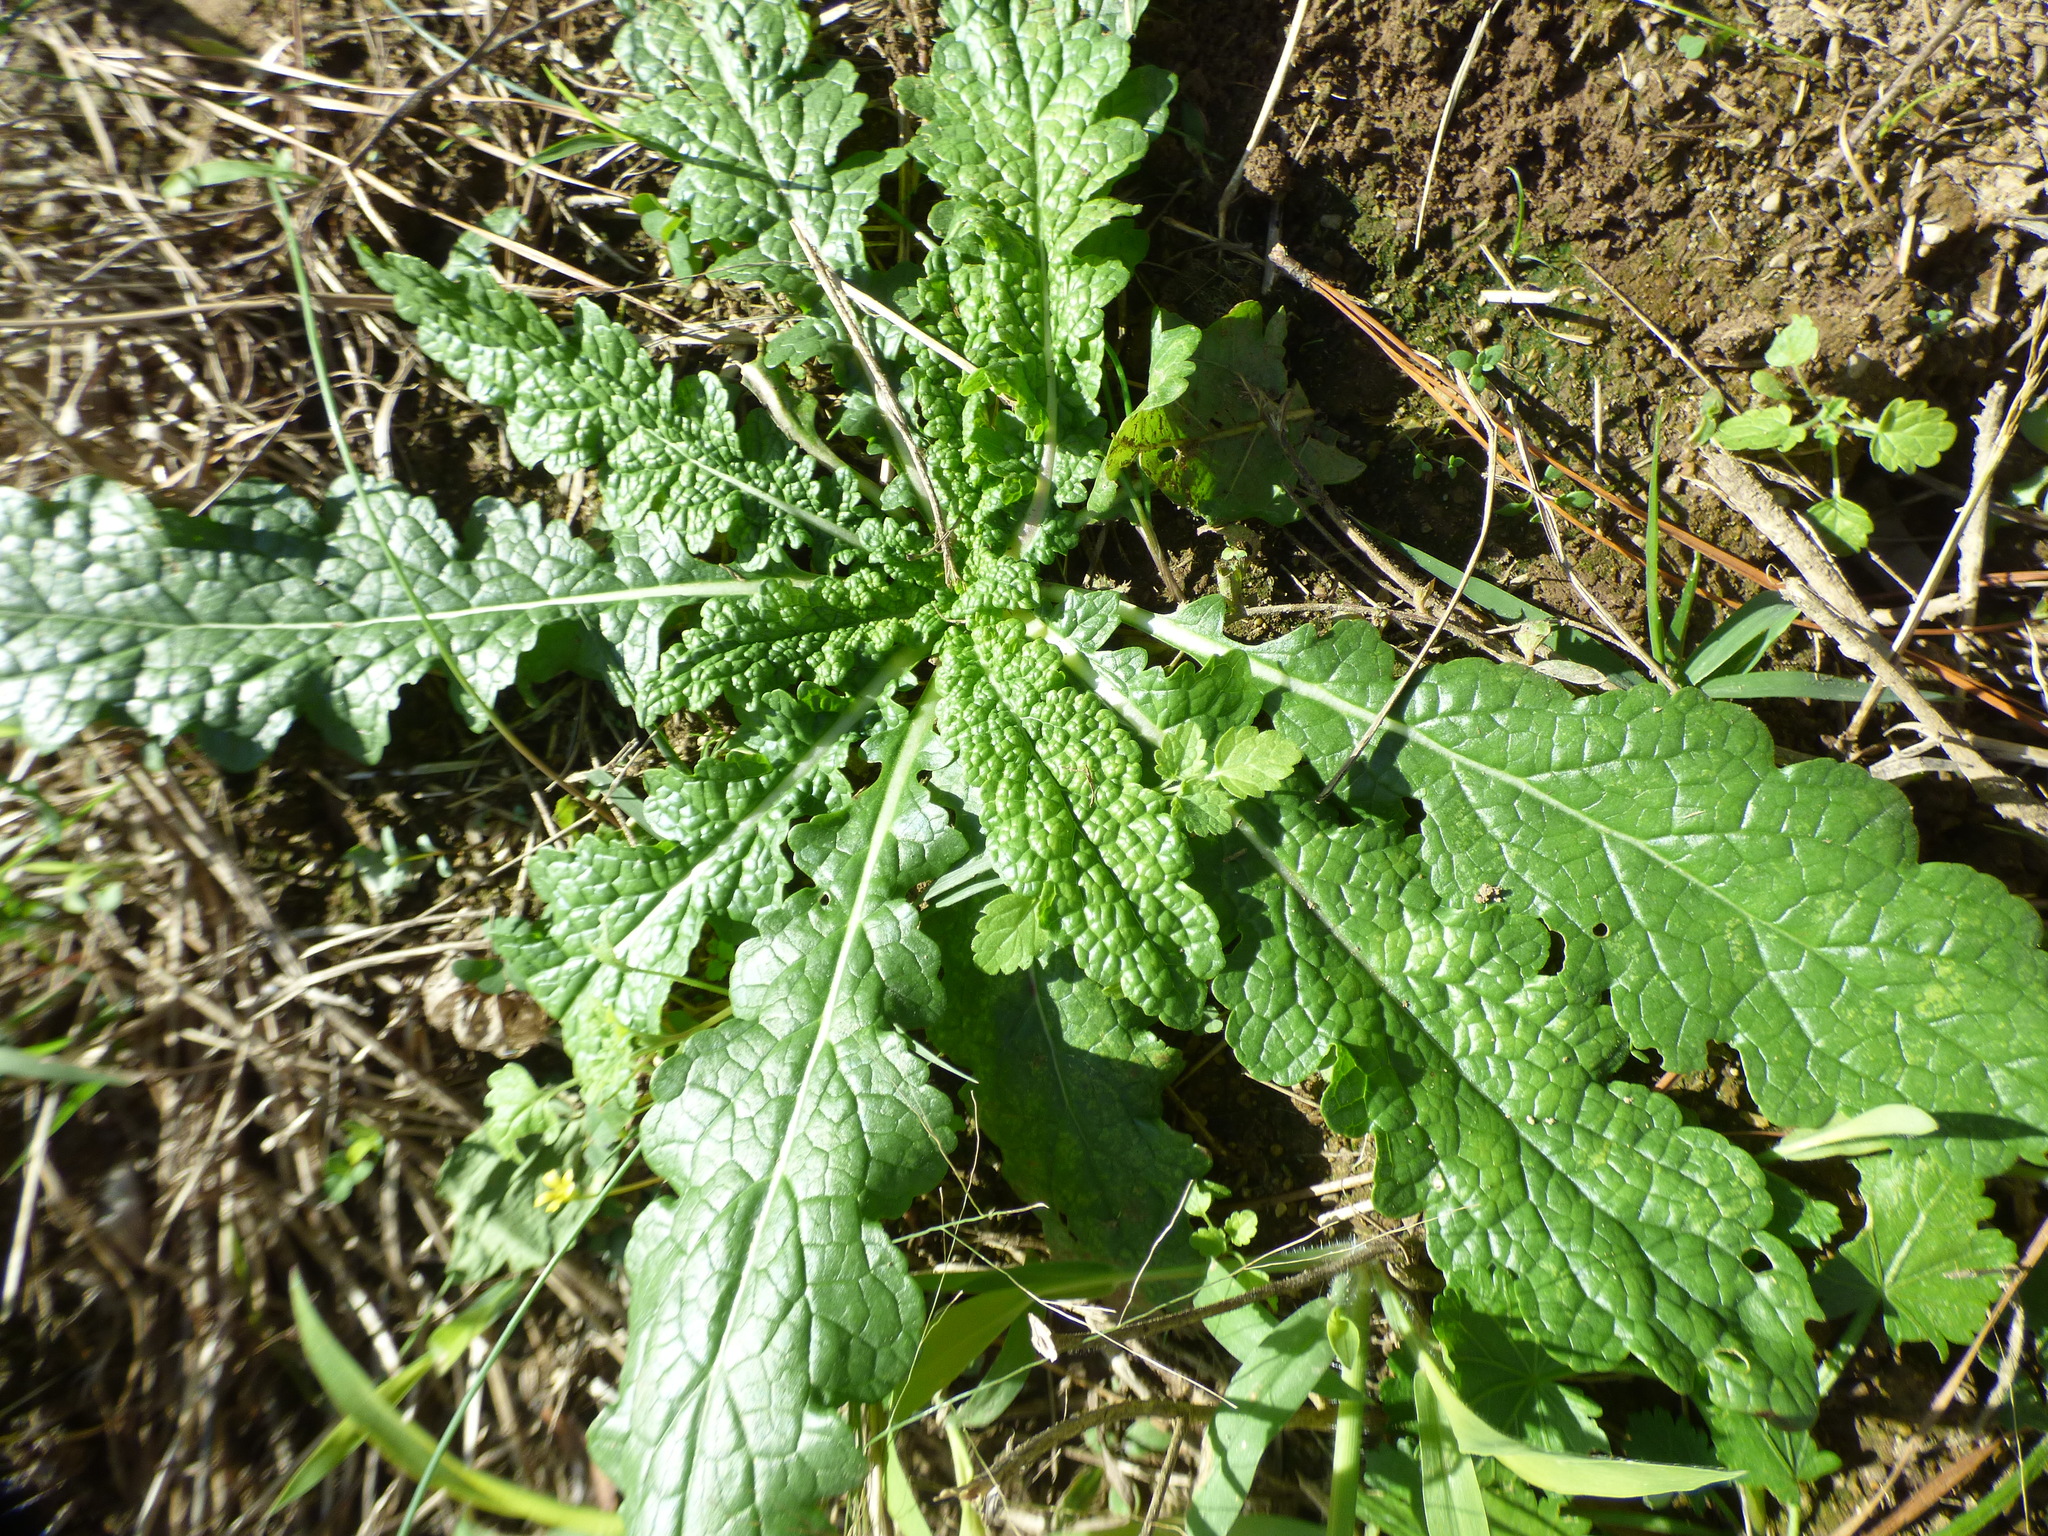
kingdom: Plantae
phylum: Tracheophyta
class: Magnoliopsida
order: Lamiales
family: Scrophulariaceae
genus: Verbascum
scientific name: Verbascum blattaria
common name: Moth mullein
